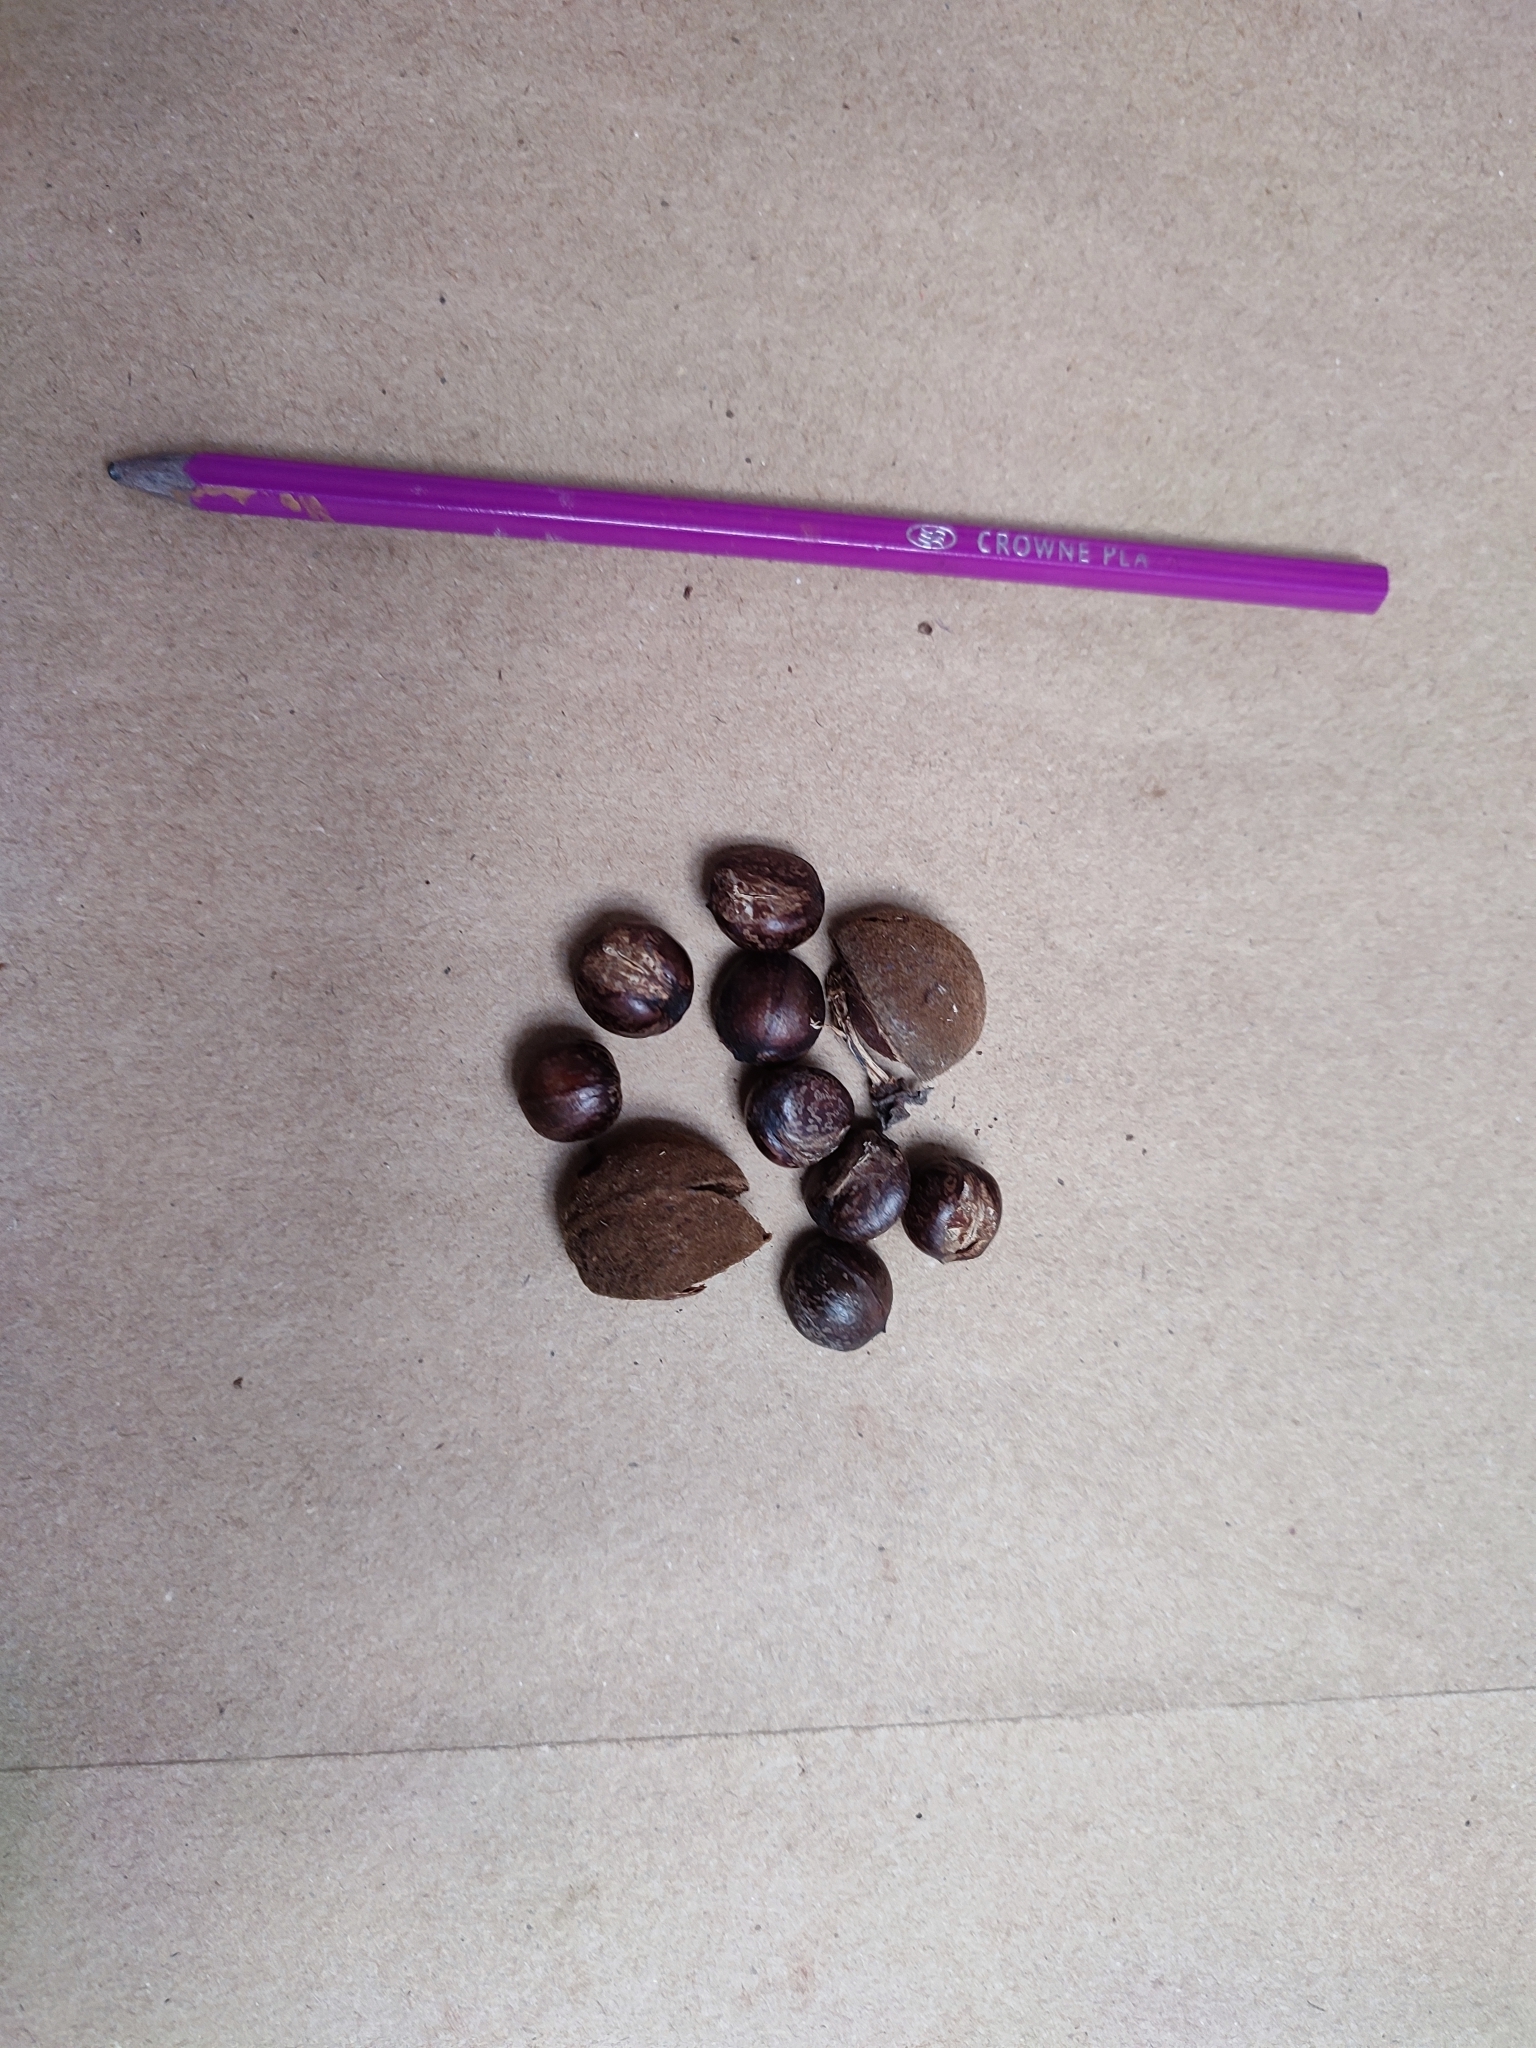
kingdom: Plantae
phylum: Tracheophyta
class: Magnoliopsida
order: Malpighiales
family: Euphorbiaceae
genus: Paracroton
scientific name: Paracroton pendulus
